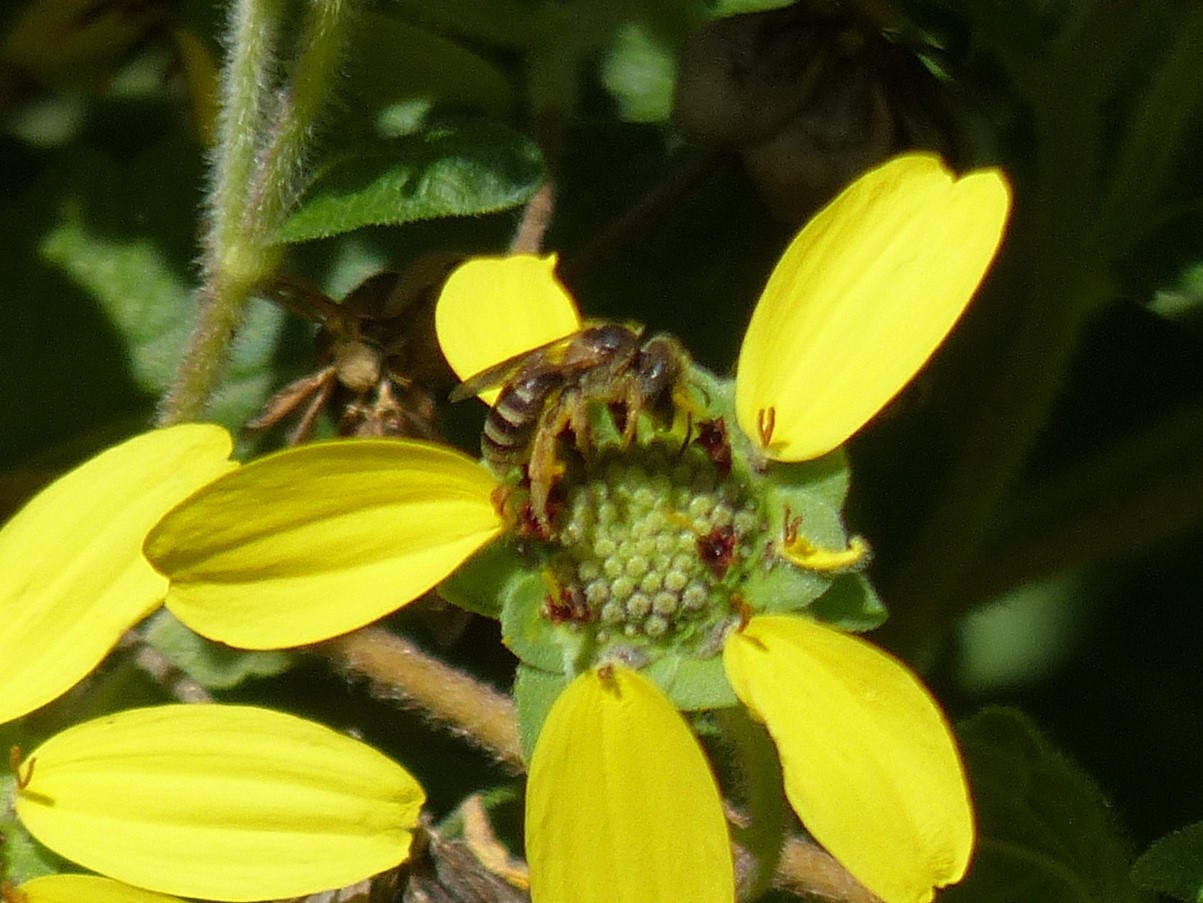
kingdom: Animalia
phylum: Arthropoda
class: Insecta
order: Hymenoptera
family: Halictidae
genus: Halictus
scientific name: Halictus ligatus
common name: Ligated furrow bee
